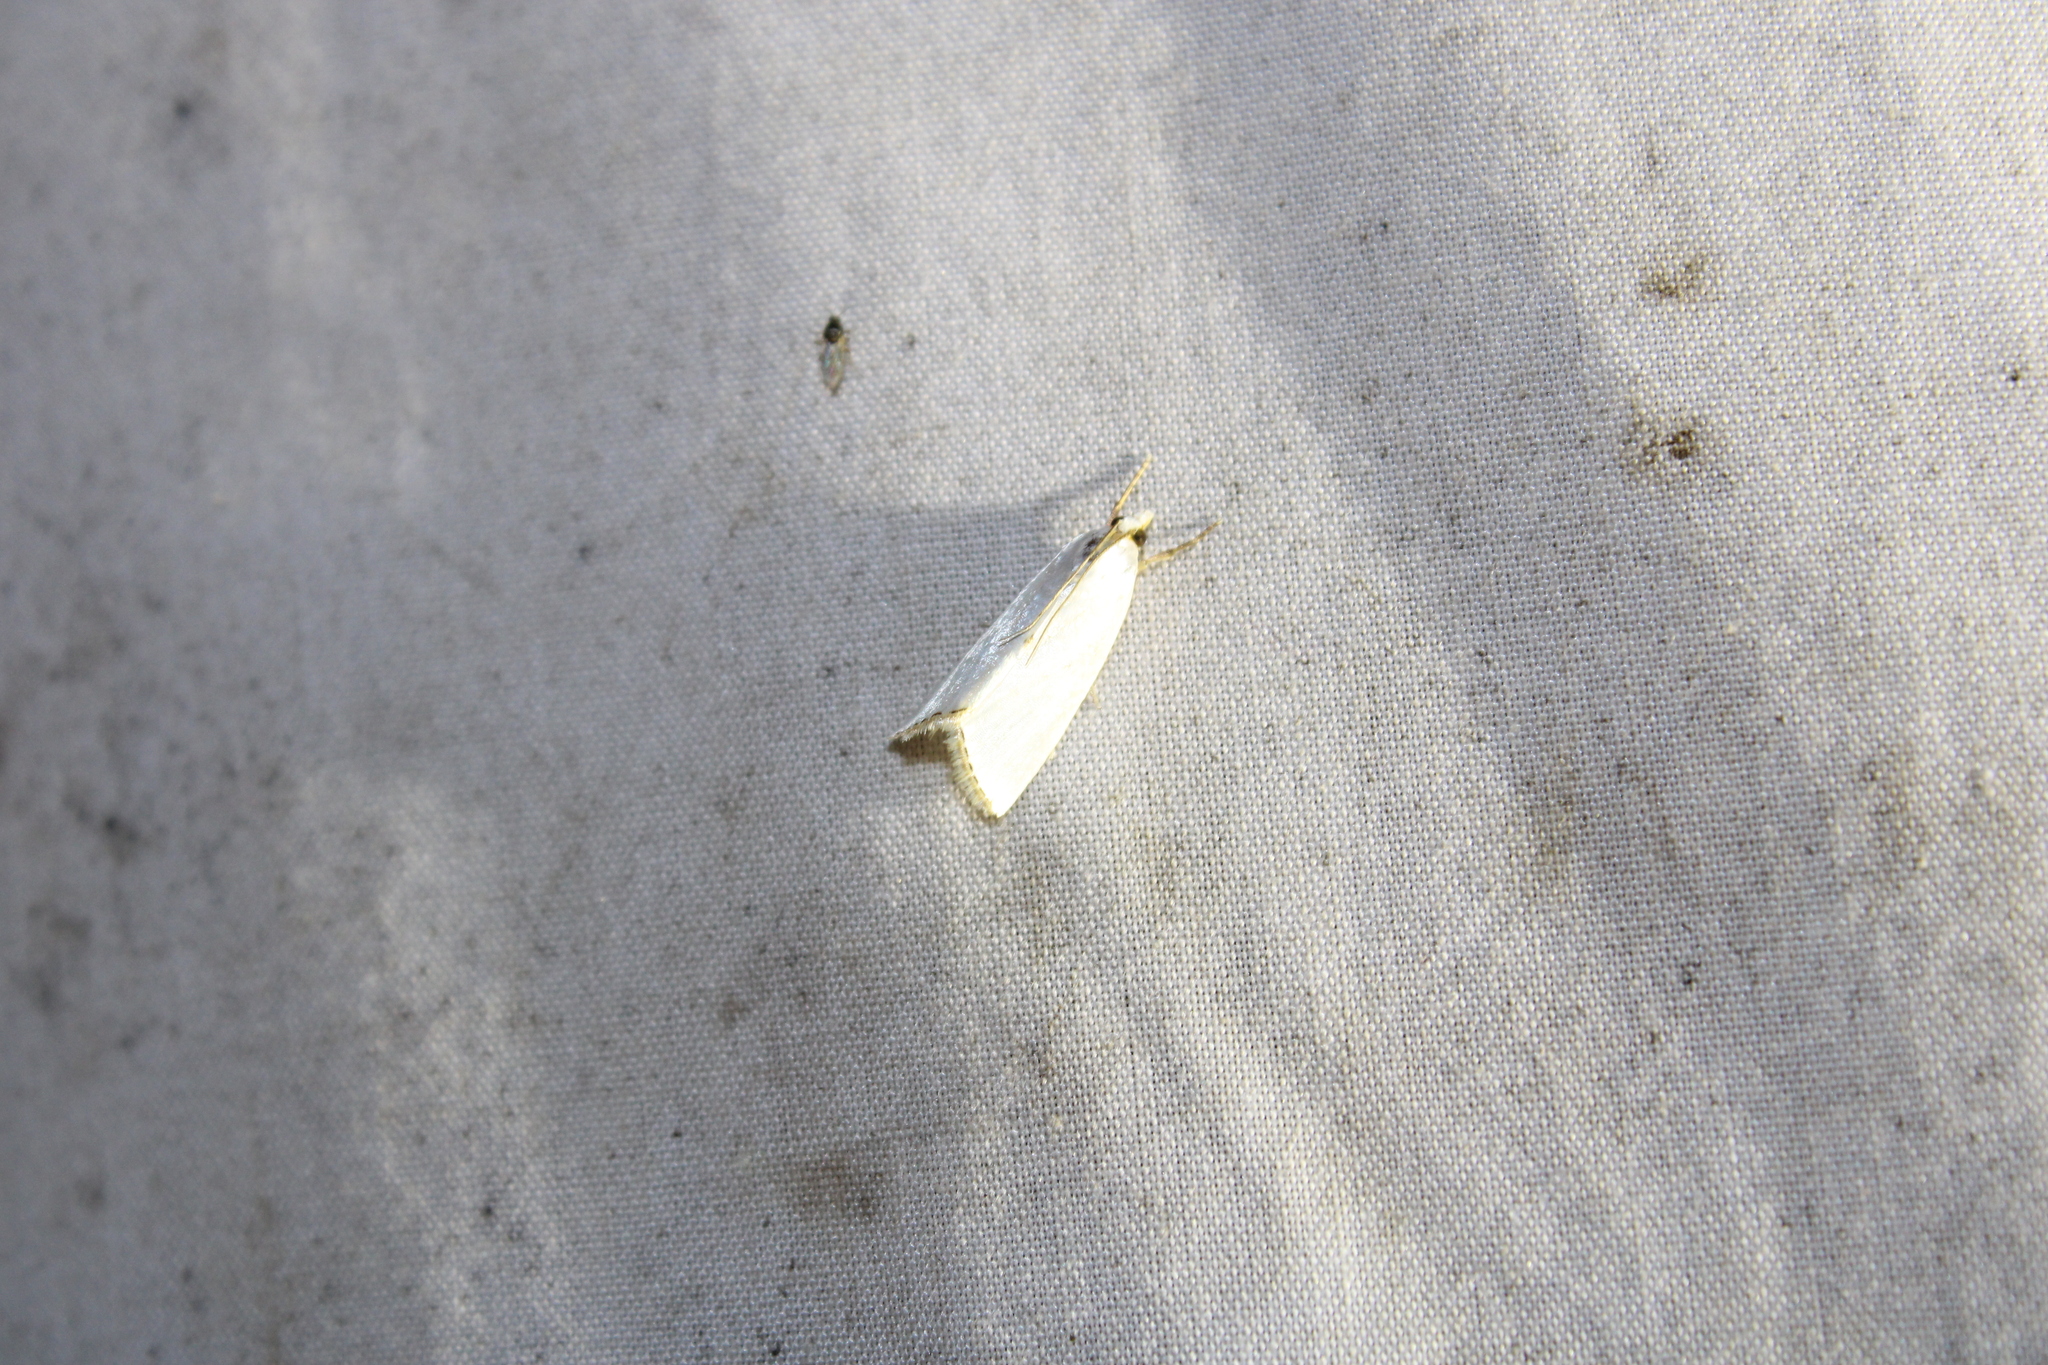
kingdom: Animalia
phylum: Arthropoda
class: Insecta
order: Lepidoptera
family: Crambidae
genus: Argyria
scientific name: Argyria nivalis
